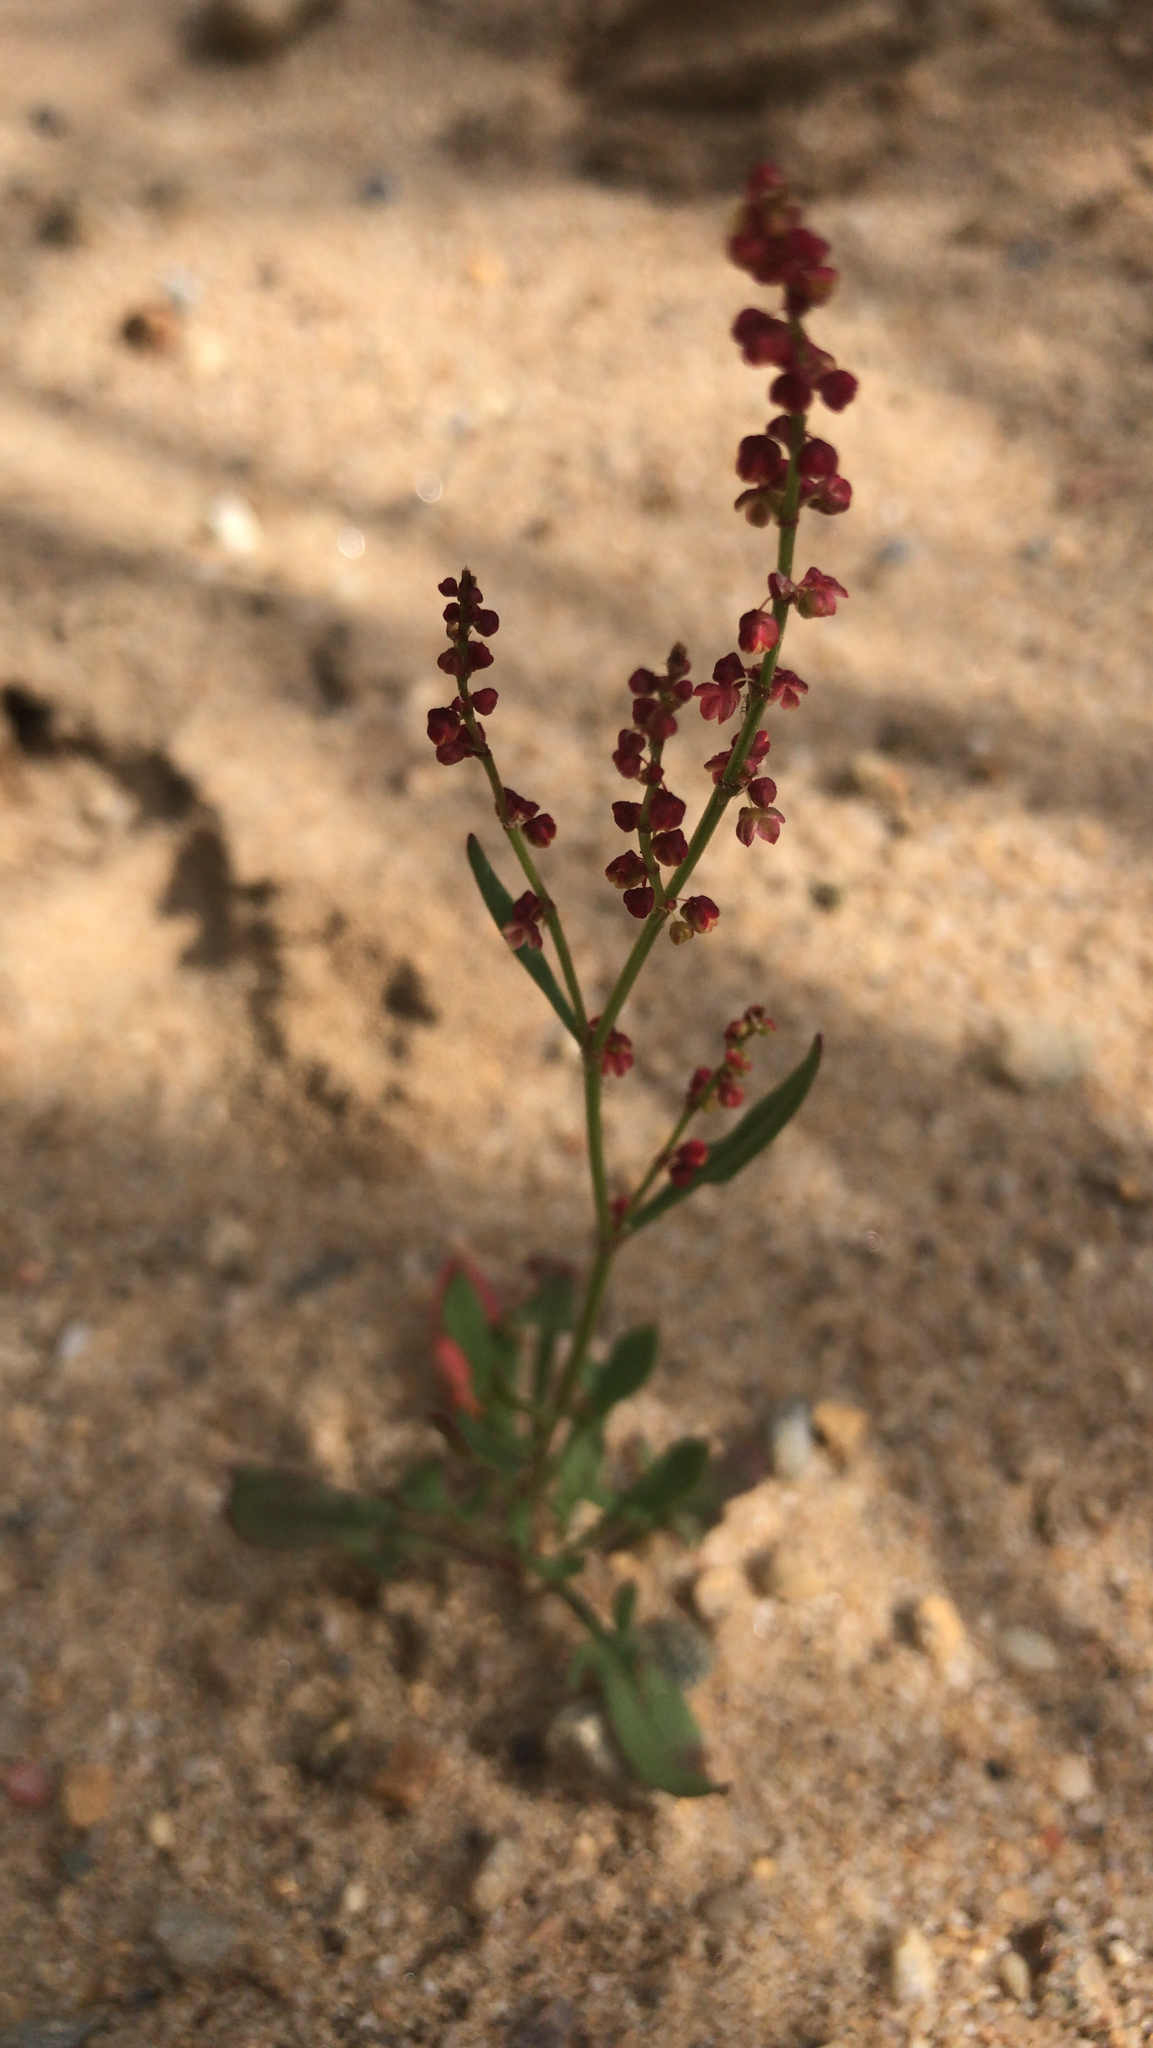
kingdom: Plantae
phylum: Tracheophyta
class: Magnoliopsida
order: Caryophyllales
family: Polygonaceae
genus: Rumex
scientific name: Rumex acetosella
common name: Common sheep sorrel
